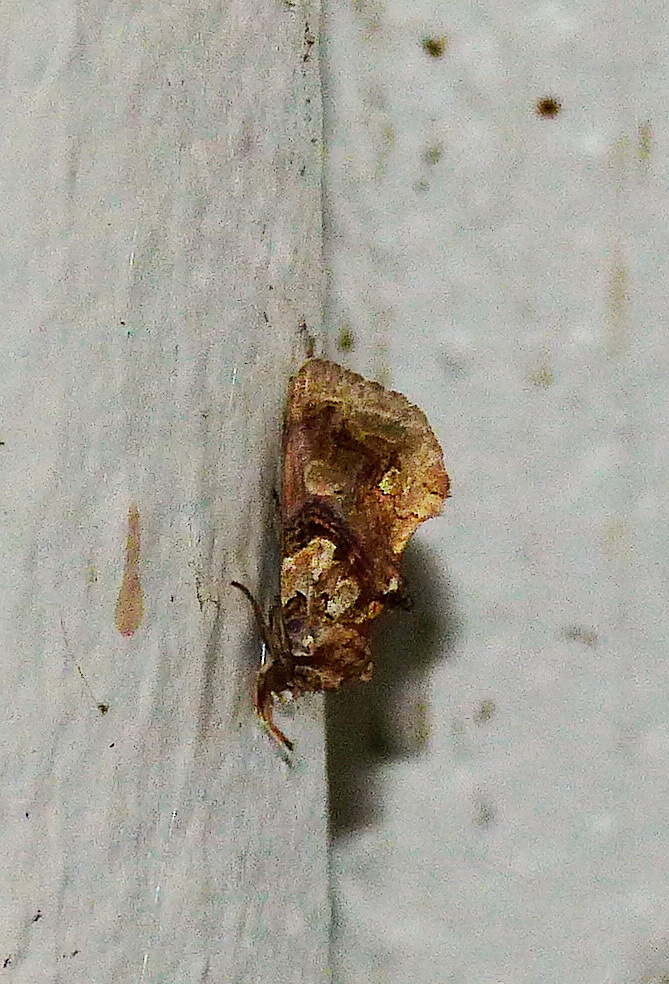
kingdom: Animalia
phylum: Arthropoda
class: Insecta
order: Lepidoptera
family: Erebidae
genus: Plusiodonta
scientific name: Plusiodonta compressipalpis
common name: Moonseed moth
